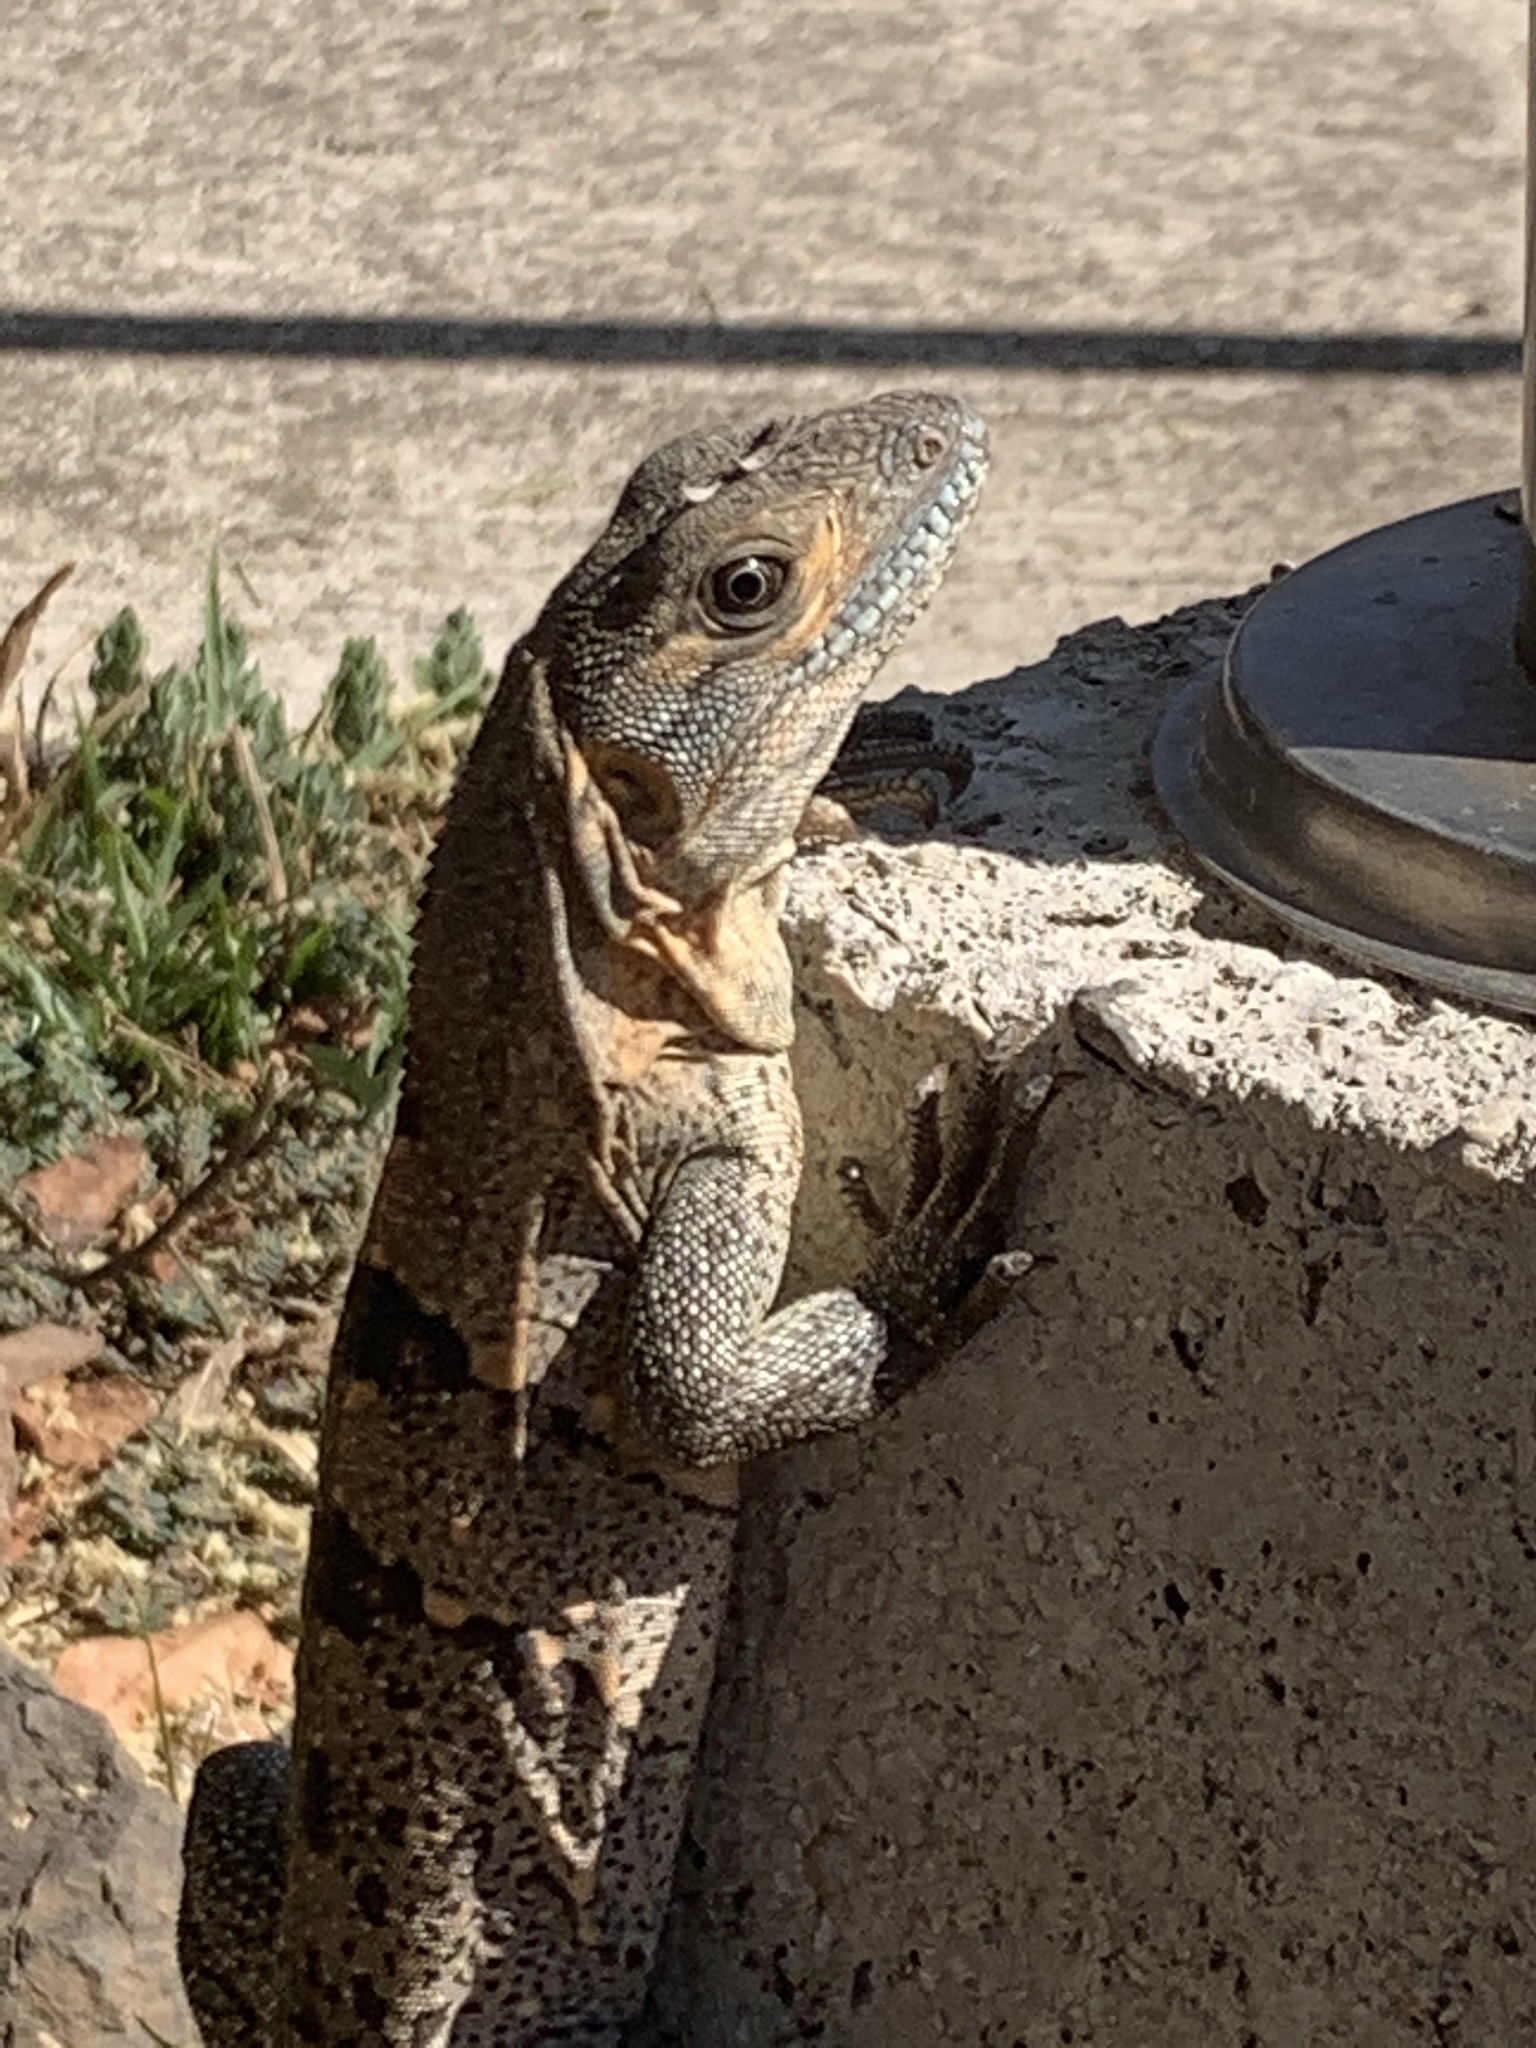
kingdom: Animalia
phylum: Chordata
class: Squamata
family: Iguanidae
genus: Ctenosaura
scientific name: Ctenosaura similis
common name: Black spiny-tailed iguana
